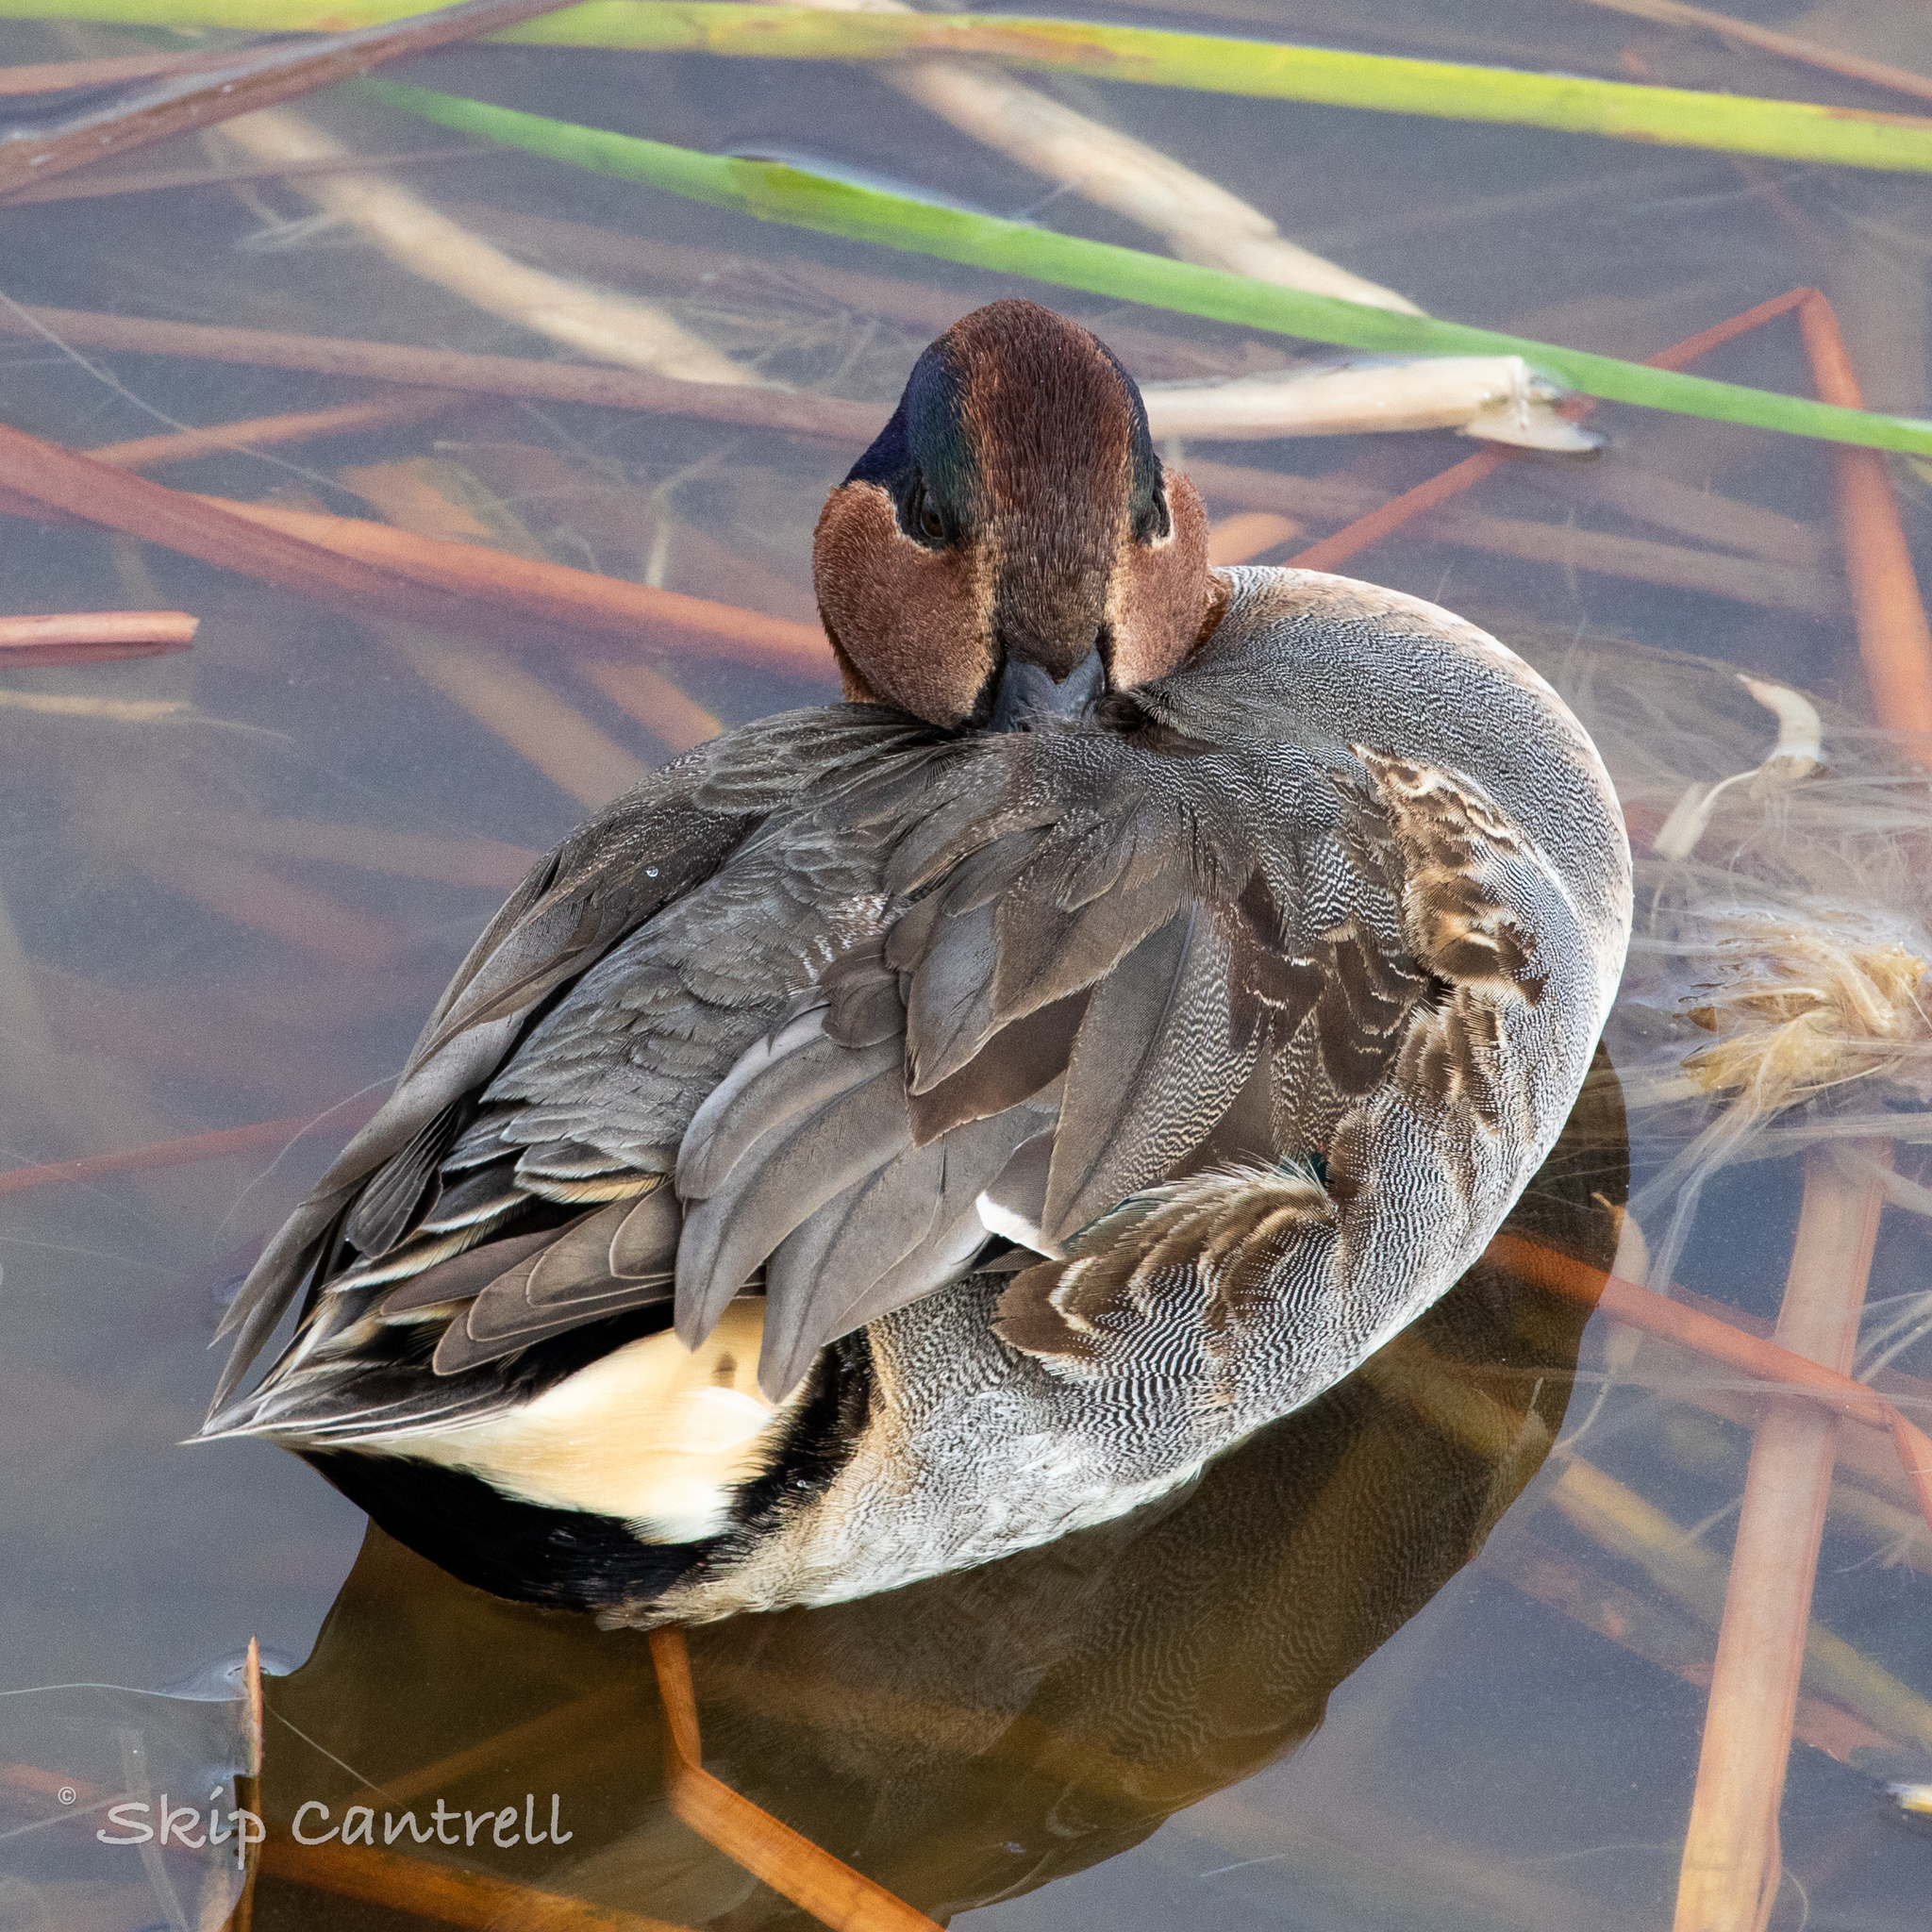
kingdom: Animalia
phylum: Chordata
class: Aves
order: Anseriformes
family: Anatidae
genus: Anas
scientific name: Anas crecca
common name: Eurasian teal
